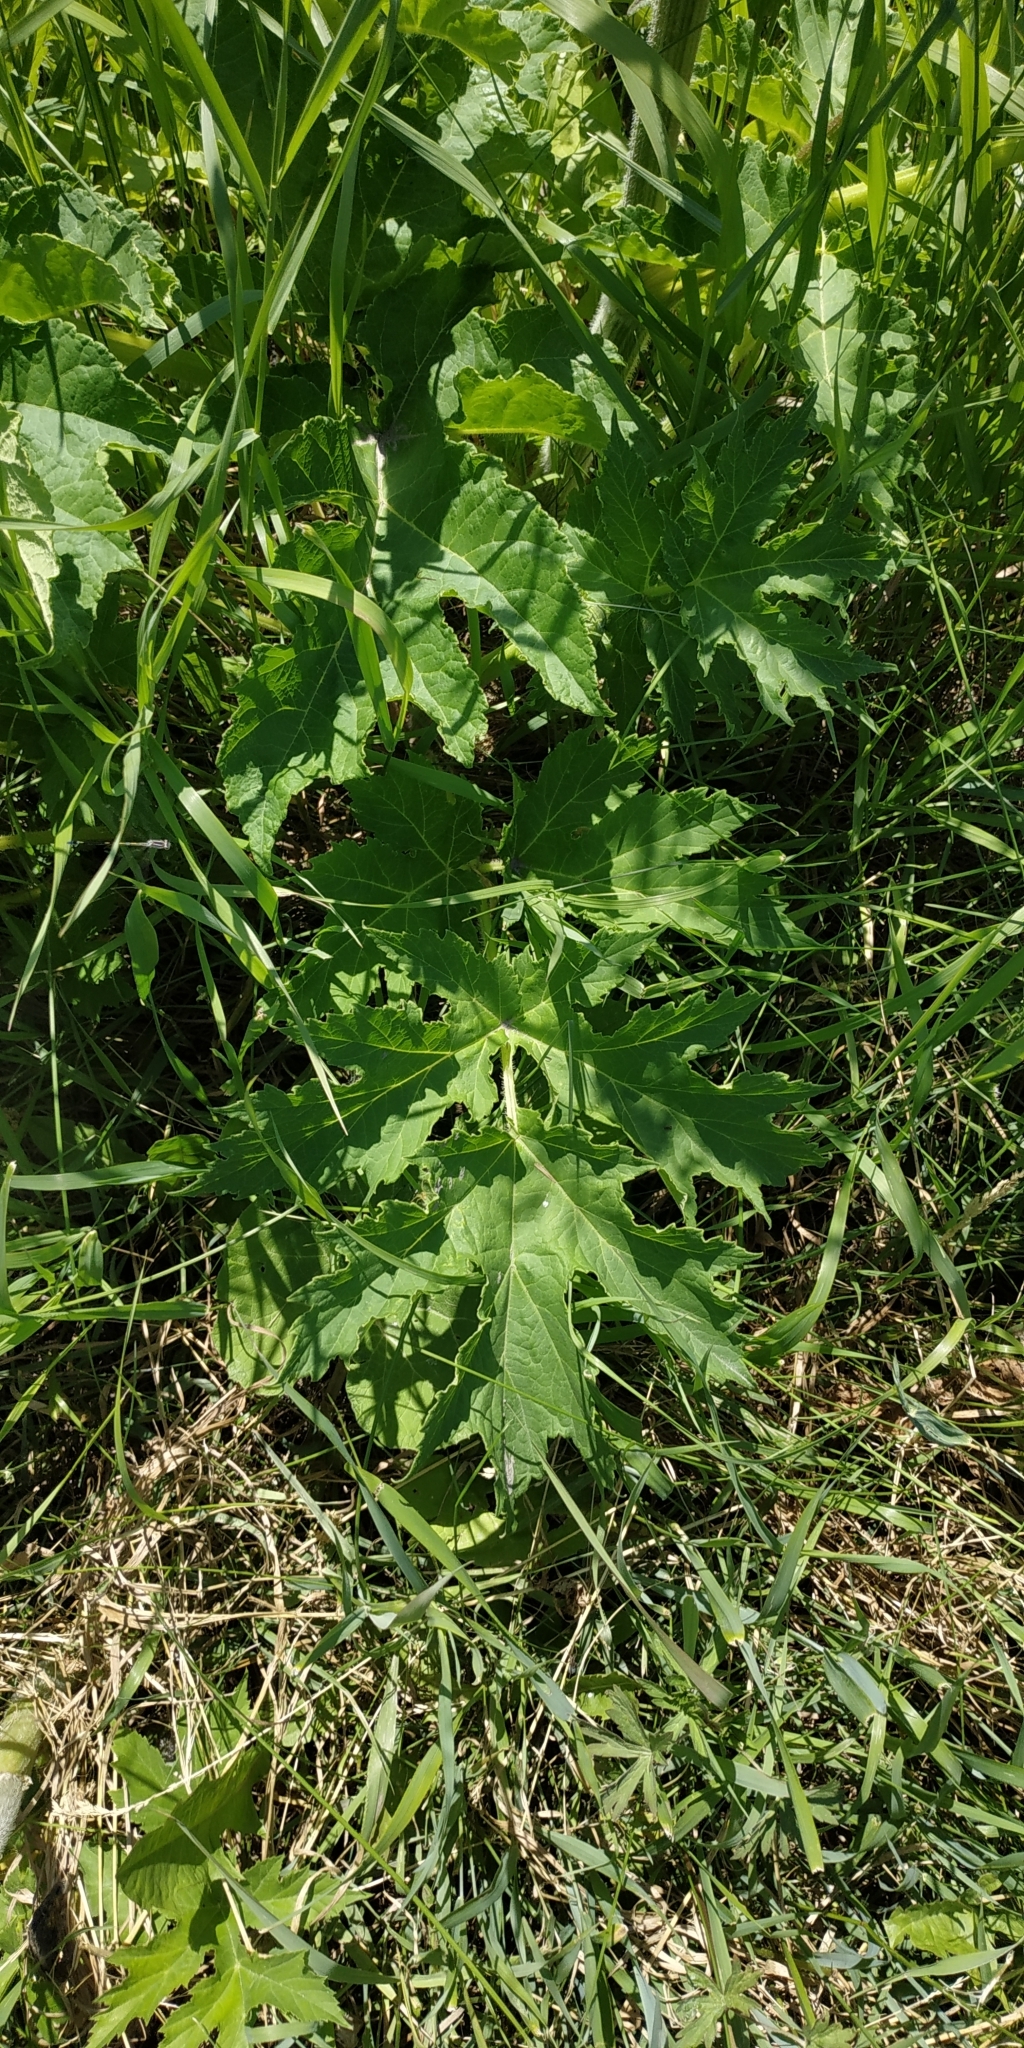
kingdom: Plantae
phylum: Tracheophyta
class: Magnoliopsida
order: Apiales
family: Apiaceae
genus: Heracleum
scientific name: Heracleum sphondylium
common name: Hogweed
